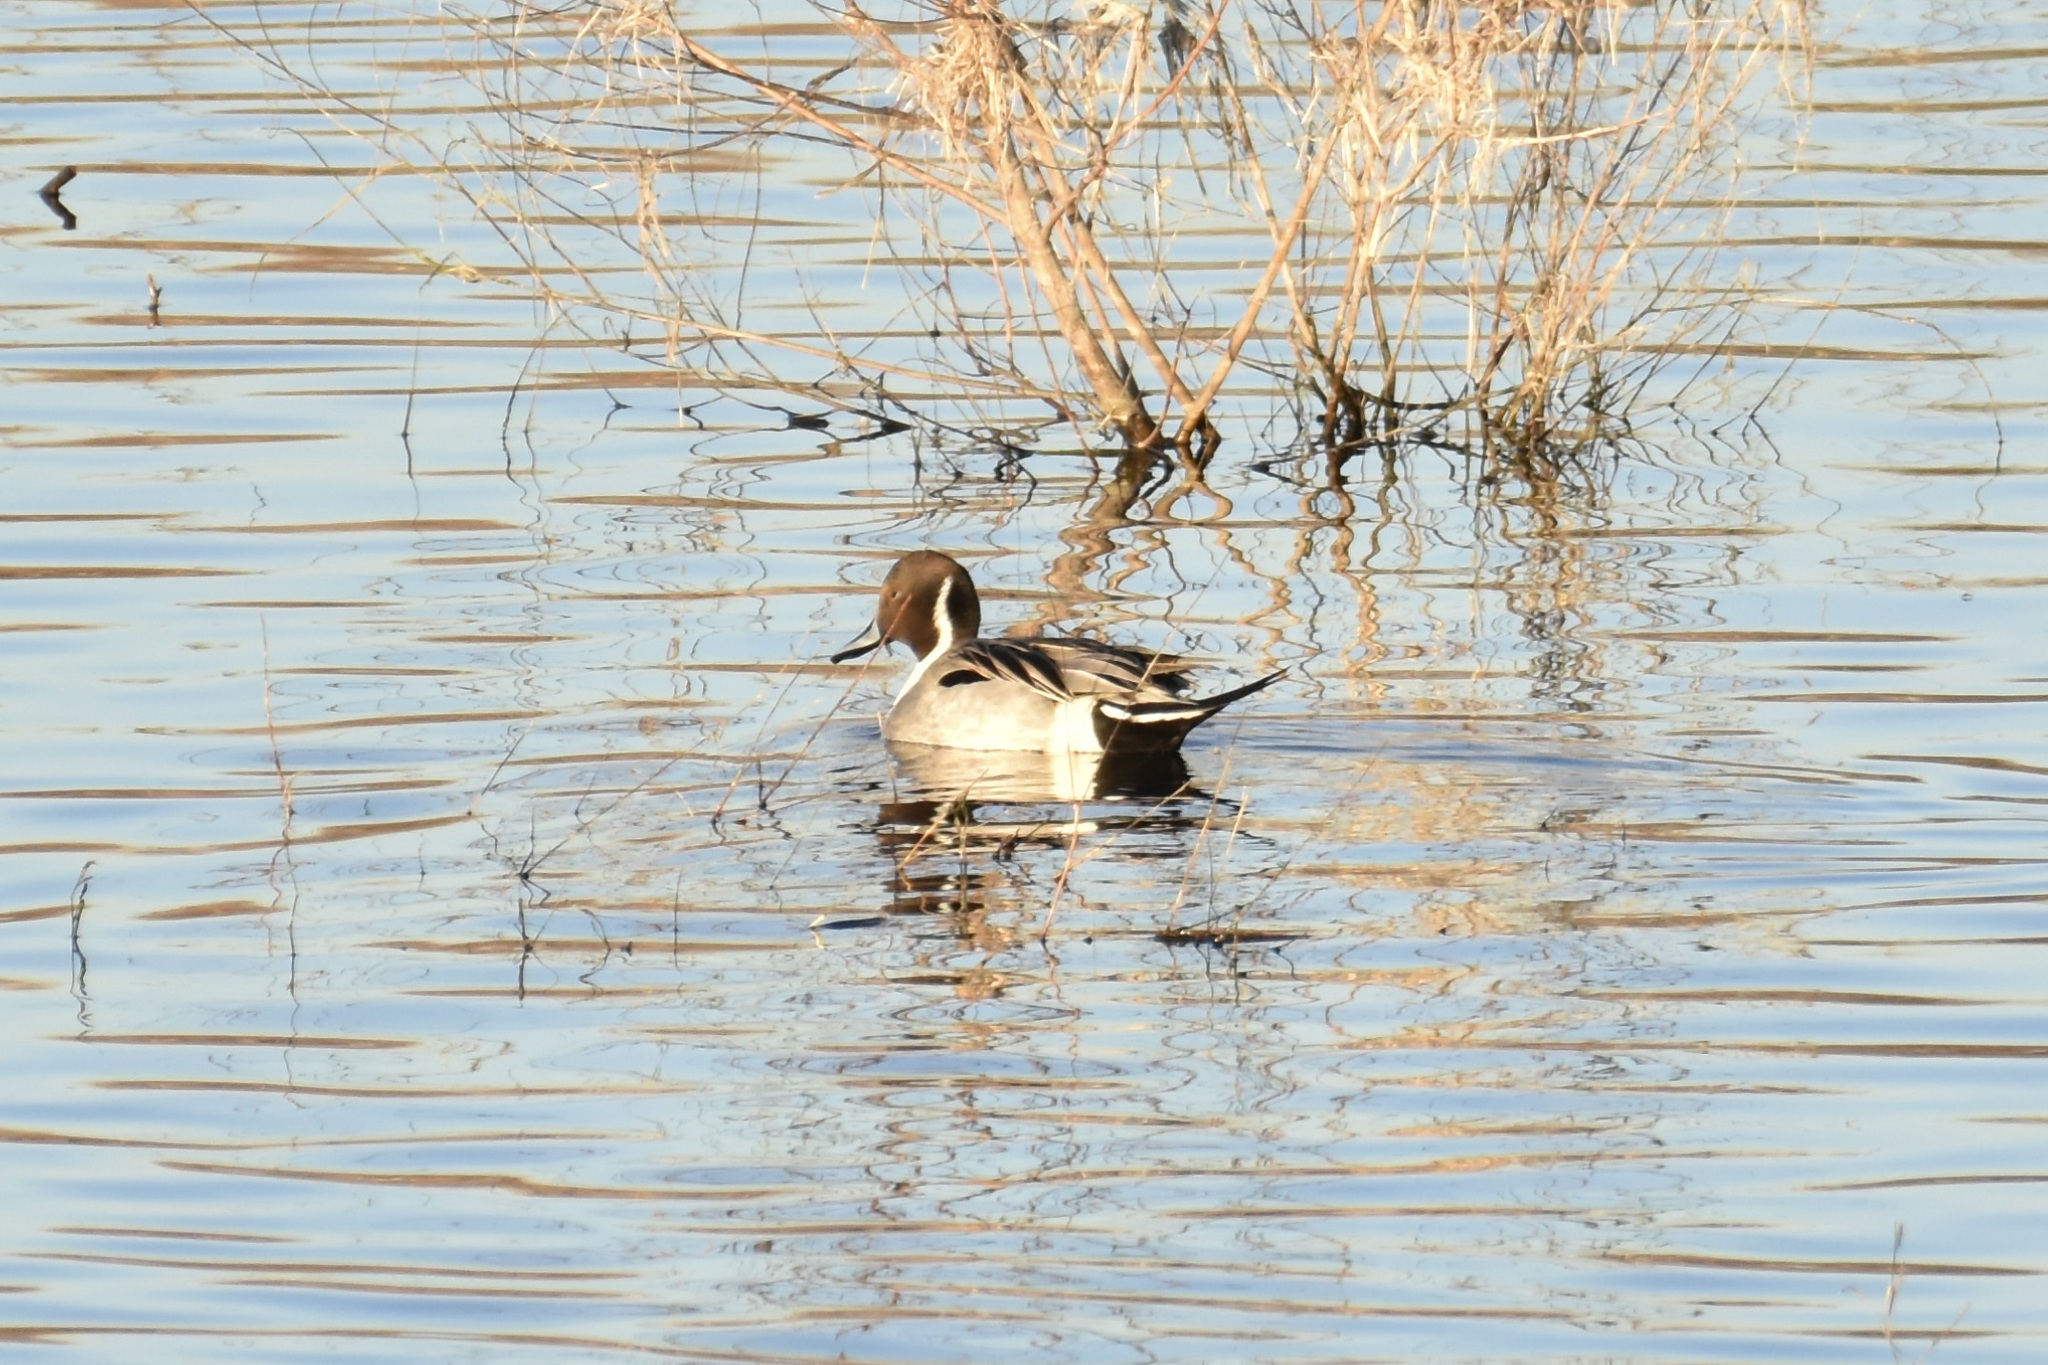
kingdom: Animalia
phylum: Chordata
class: Aves
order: Anseriformes
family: Anatidae
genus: Anas
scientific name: Anas acuta
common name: Northern pintail
